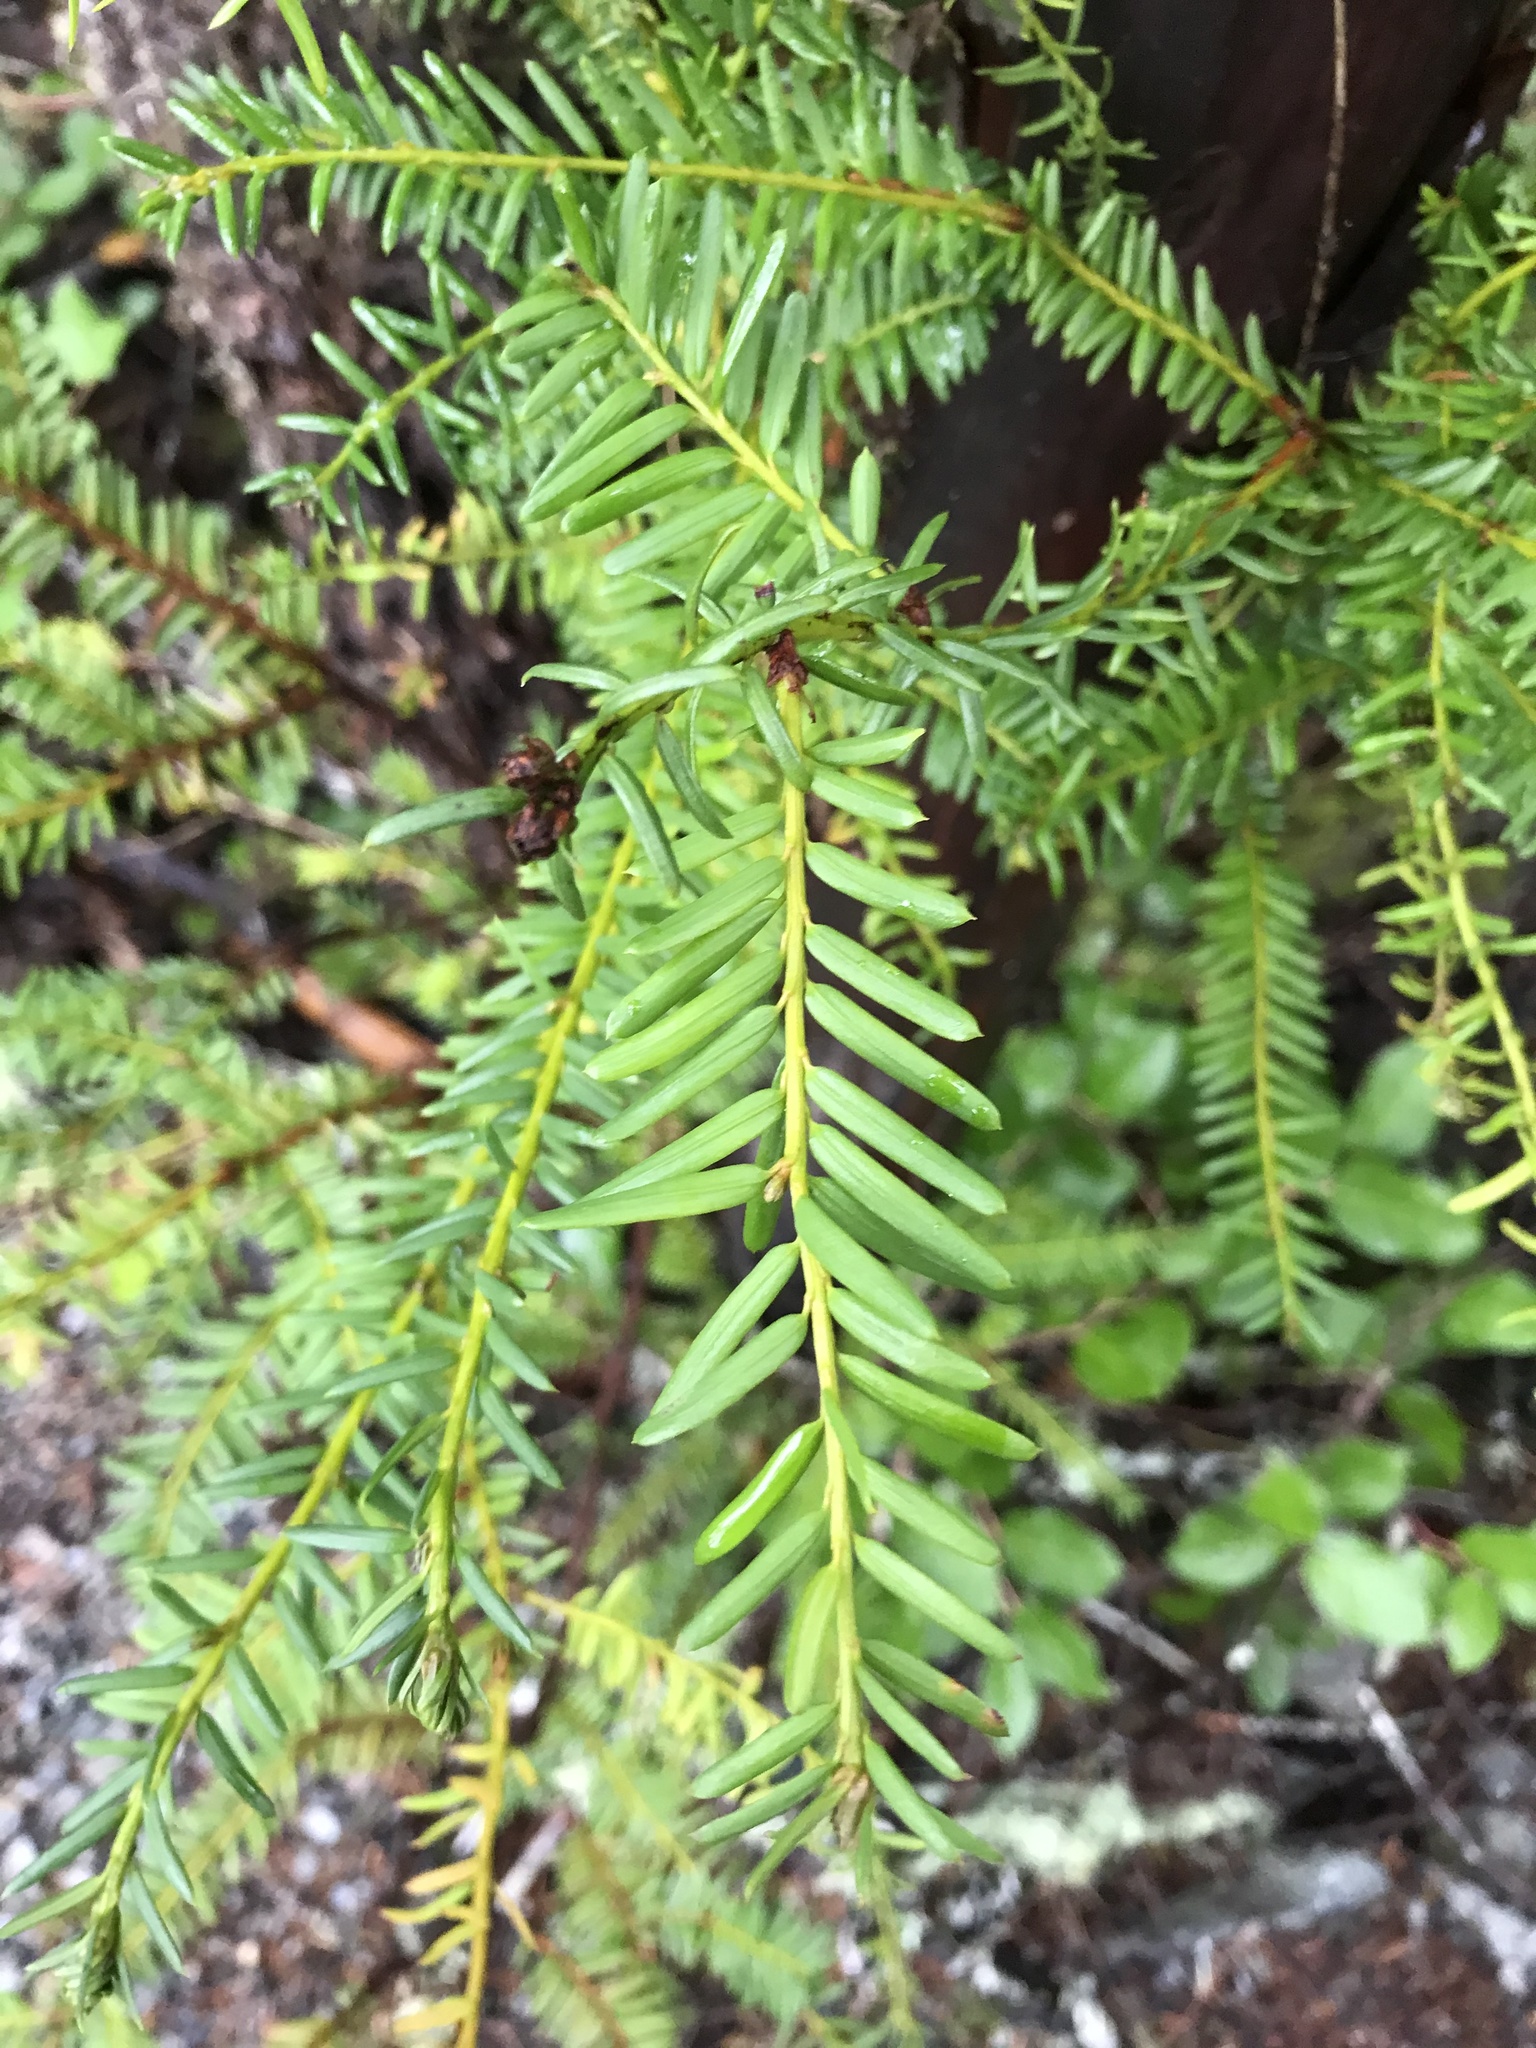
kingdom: Plantae
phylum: Tracheophyta
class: Pinopsida
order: Pinales
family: Taxaceae
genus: Taxus
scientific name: Taxus brevifolia
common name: Pacific yew
